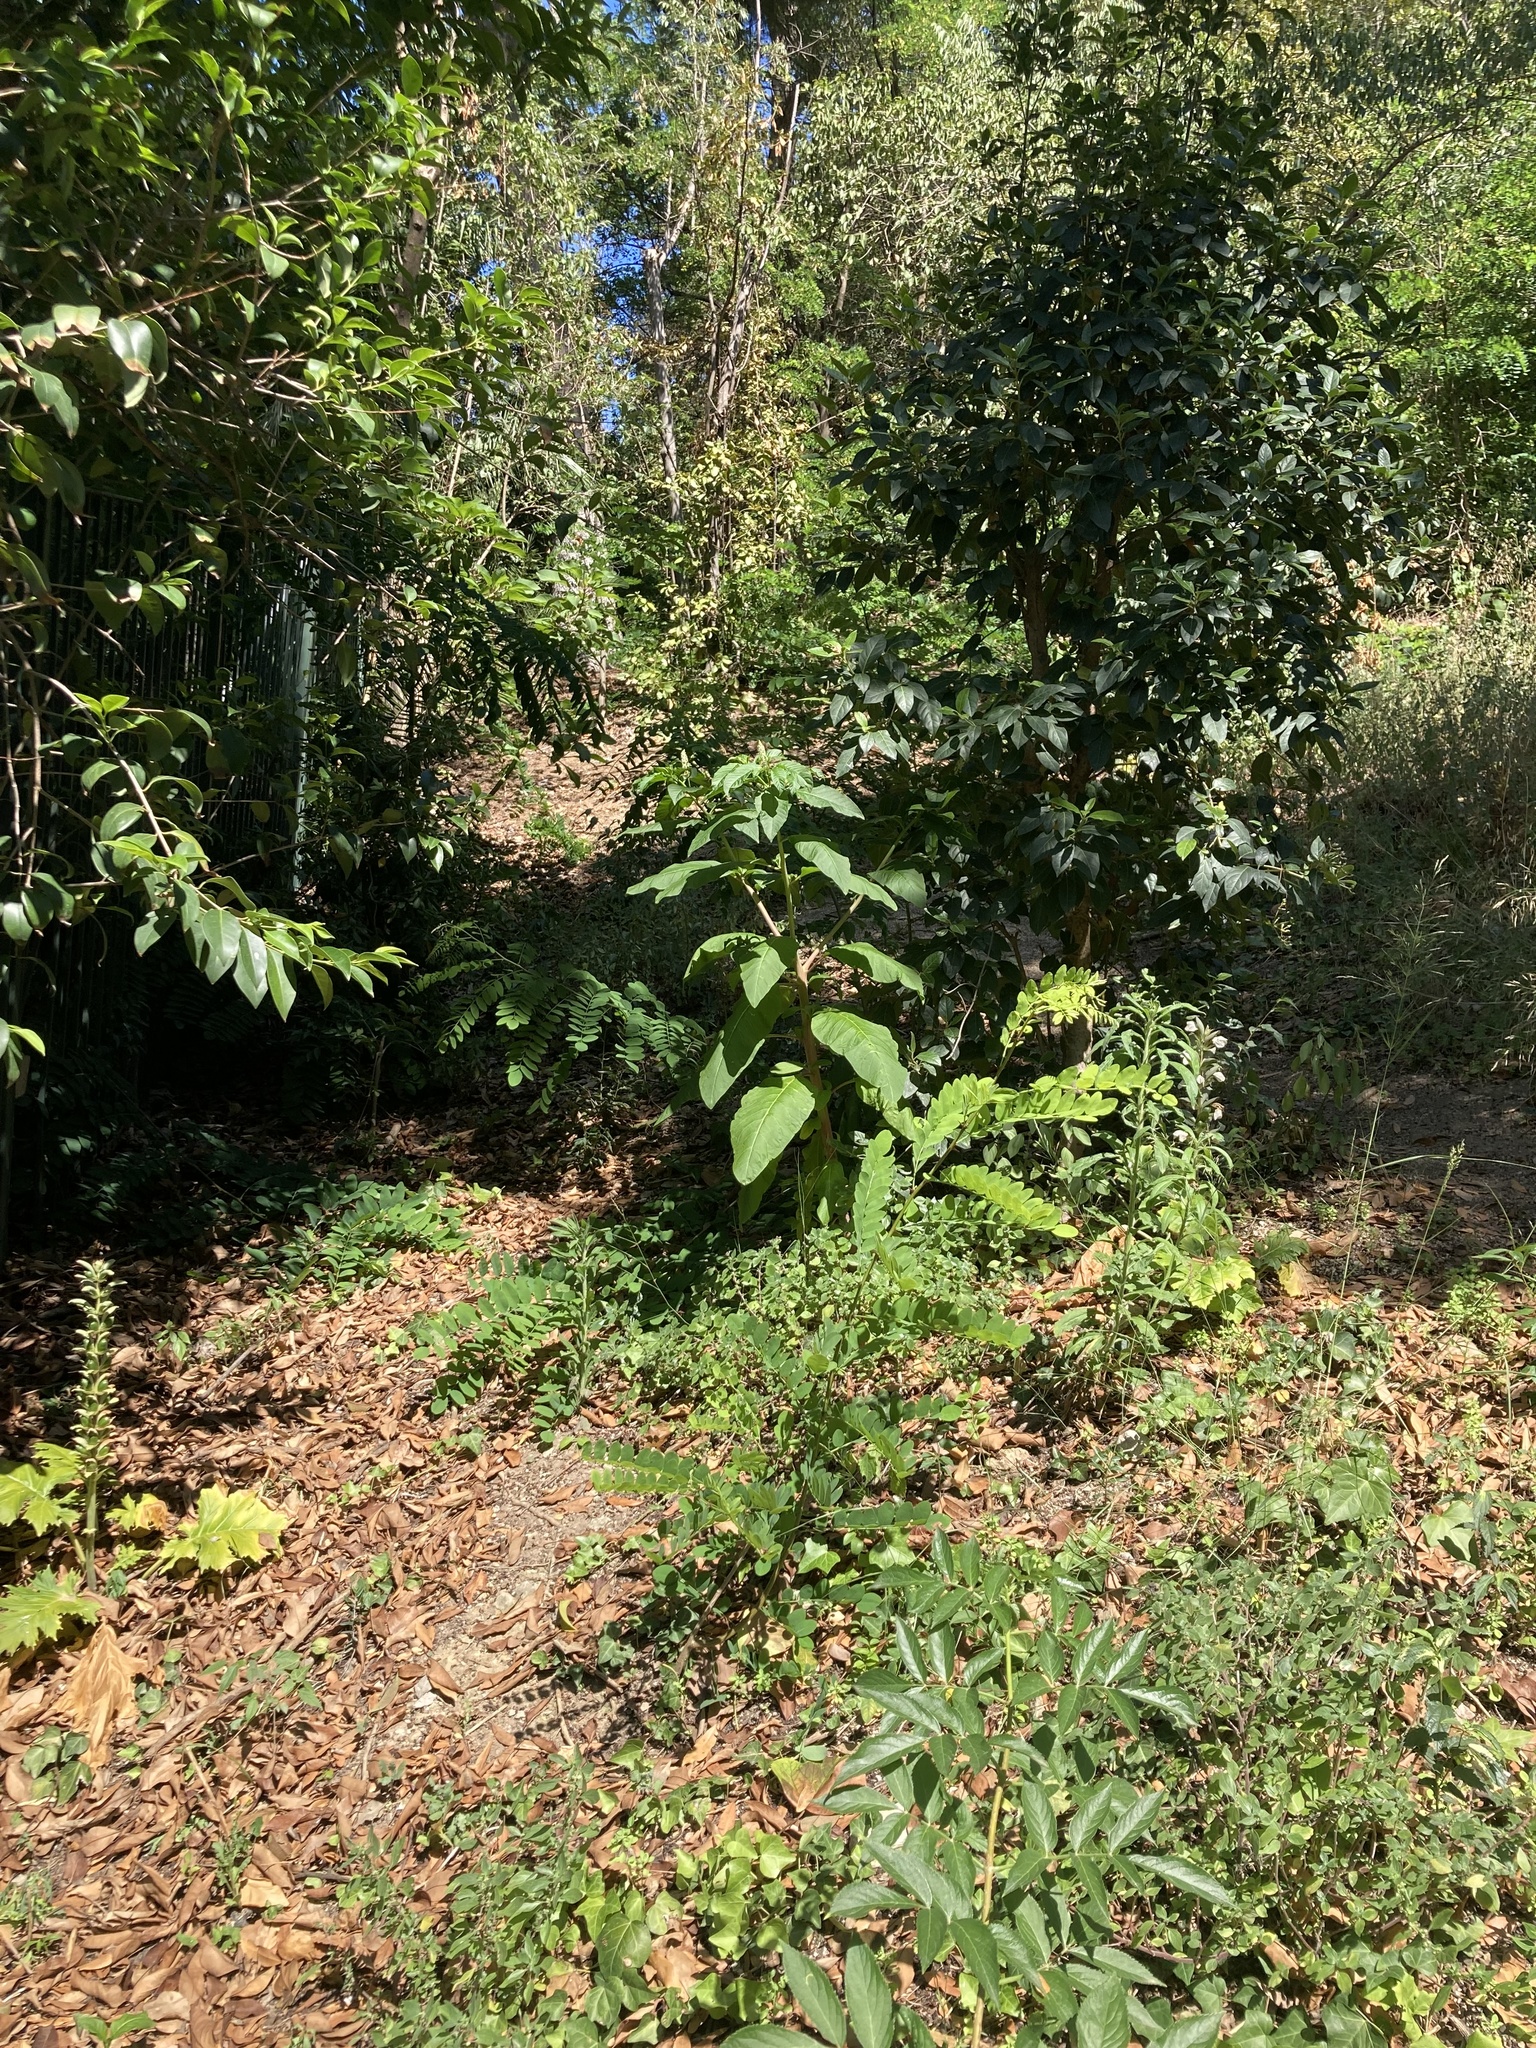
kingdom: Plantae
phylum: Tracheophyta
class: Magnoliopsida
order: Caryophyllales
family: Phytolaccaceae
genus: Phytolacca
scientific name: Phytolacca americana
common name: American pokeweed
